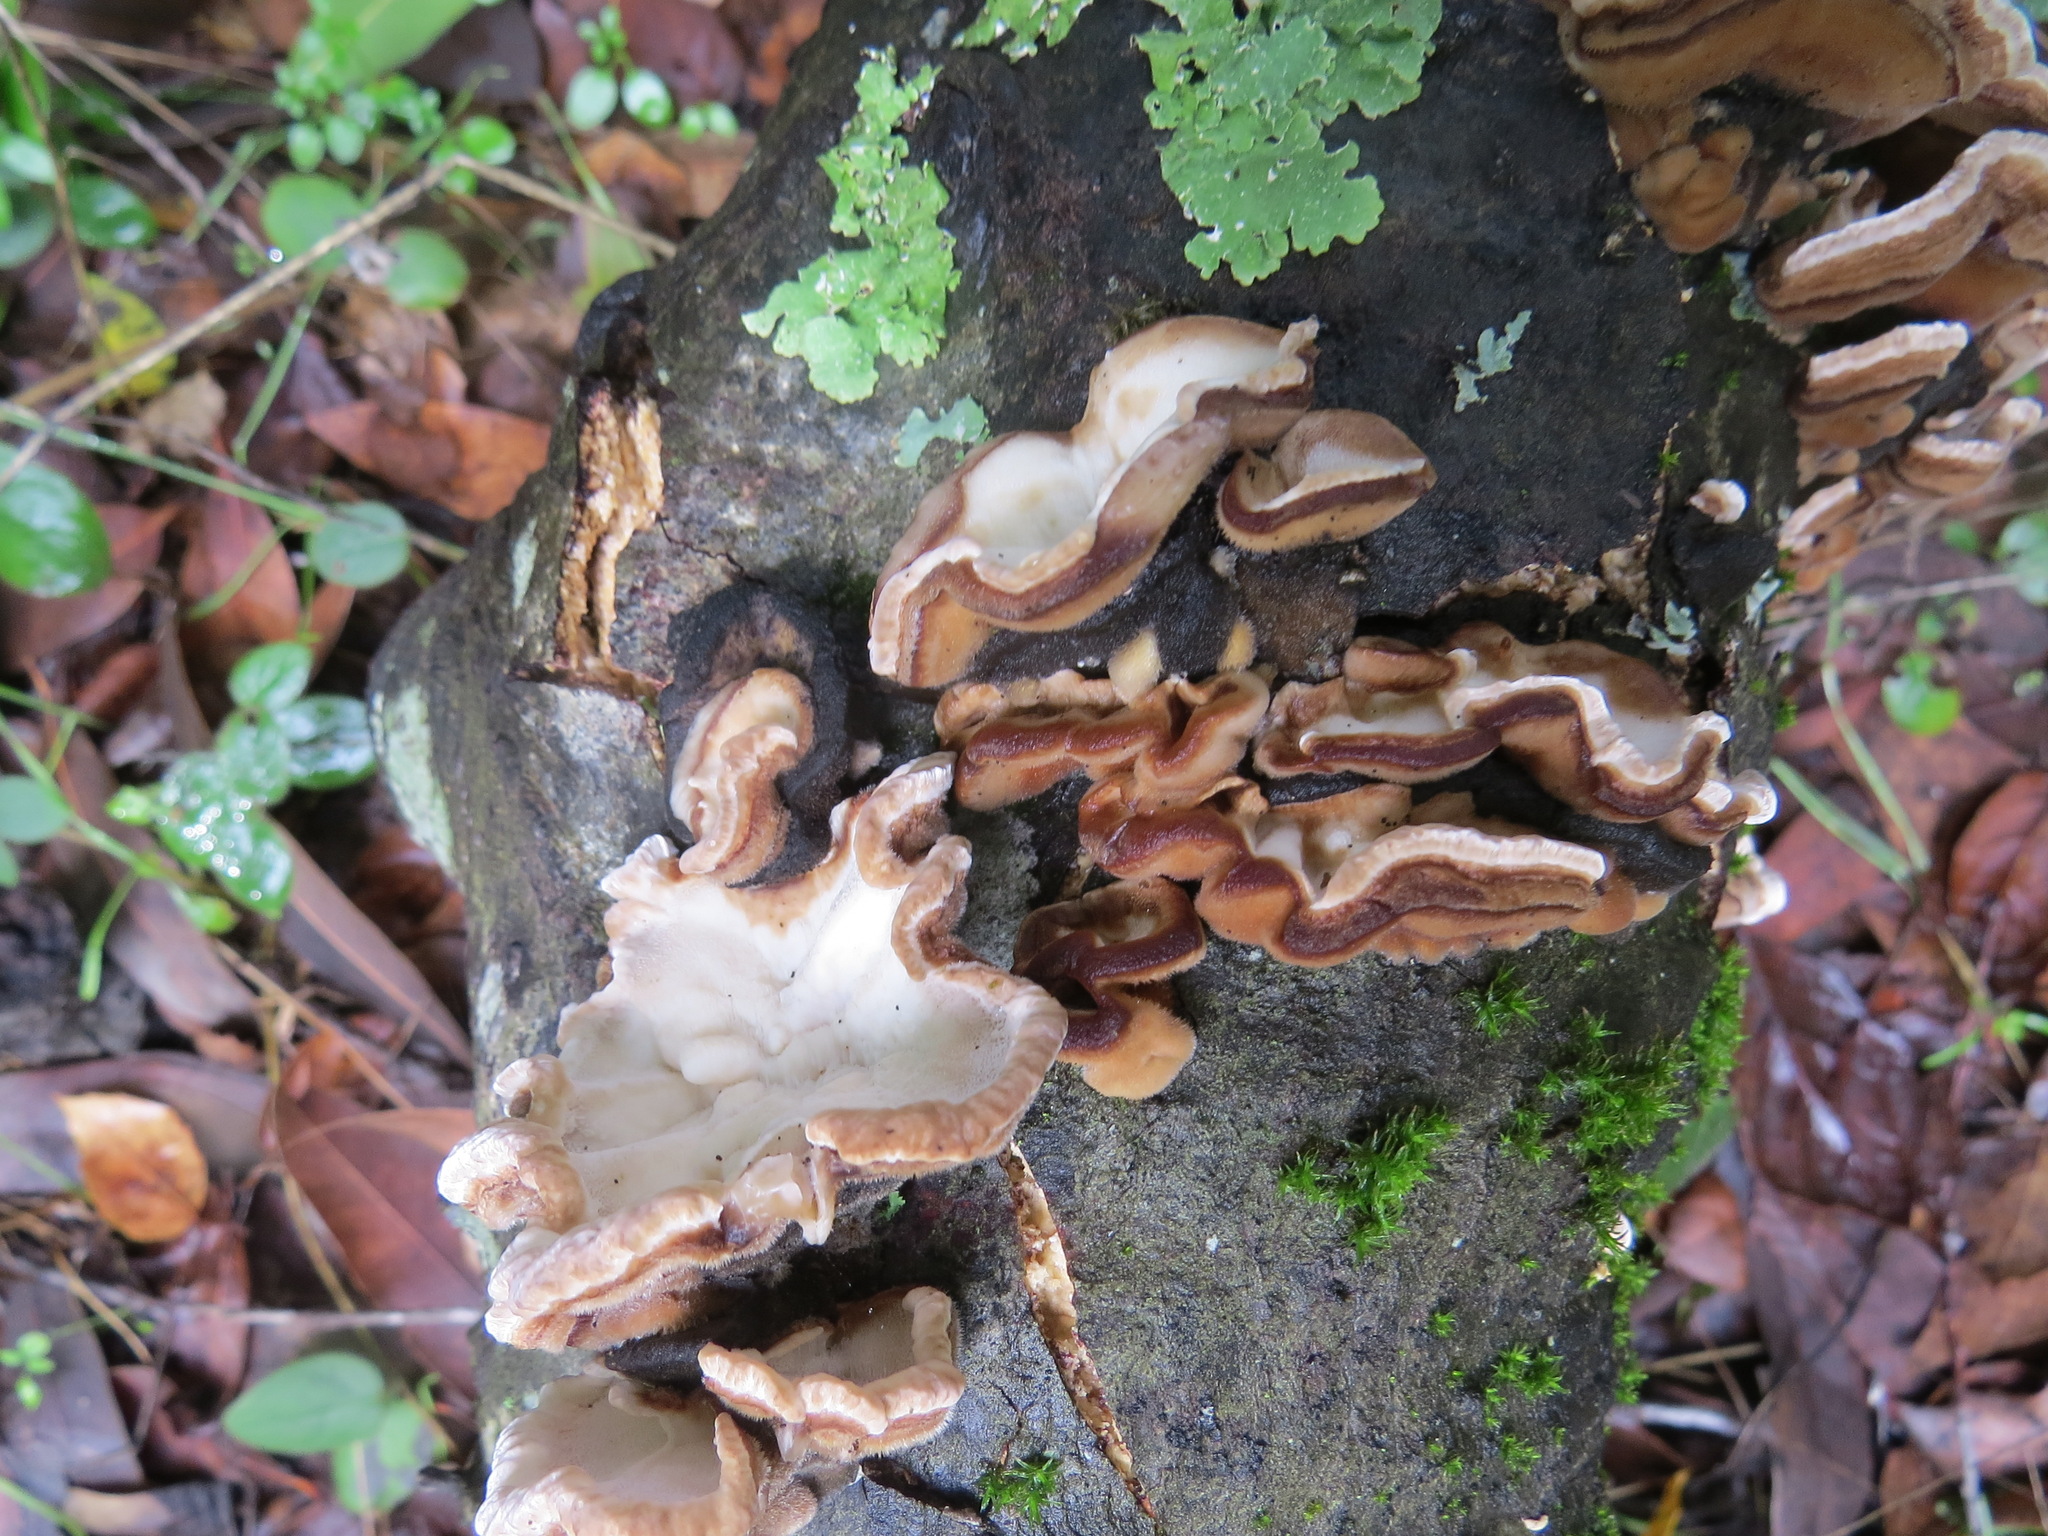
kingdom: Fungi
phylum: Basidiomycota
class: Agaricomycetes
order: Polyporales
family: Polyporaceae
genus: Trametes
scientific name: Trametes versicolor
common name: Turkeytail
